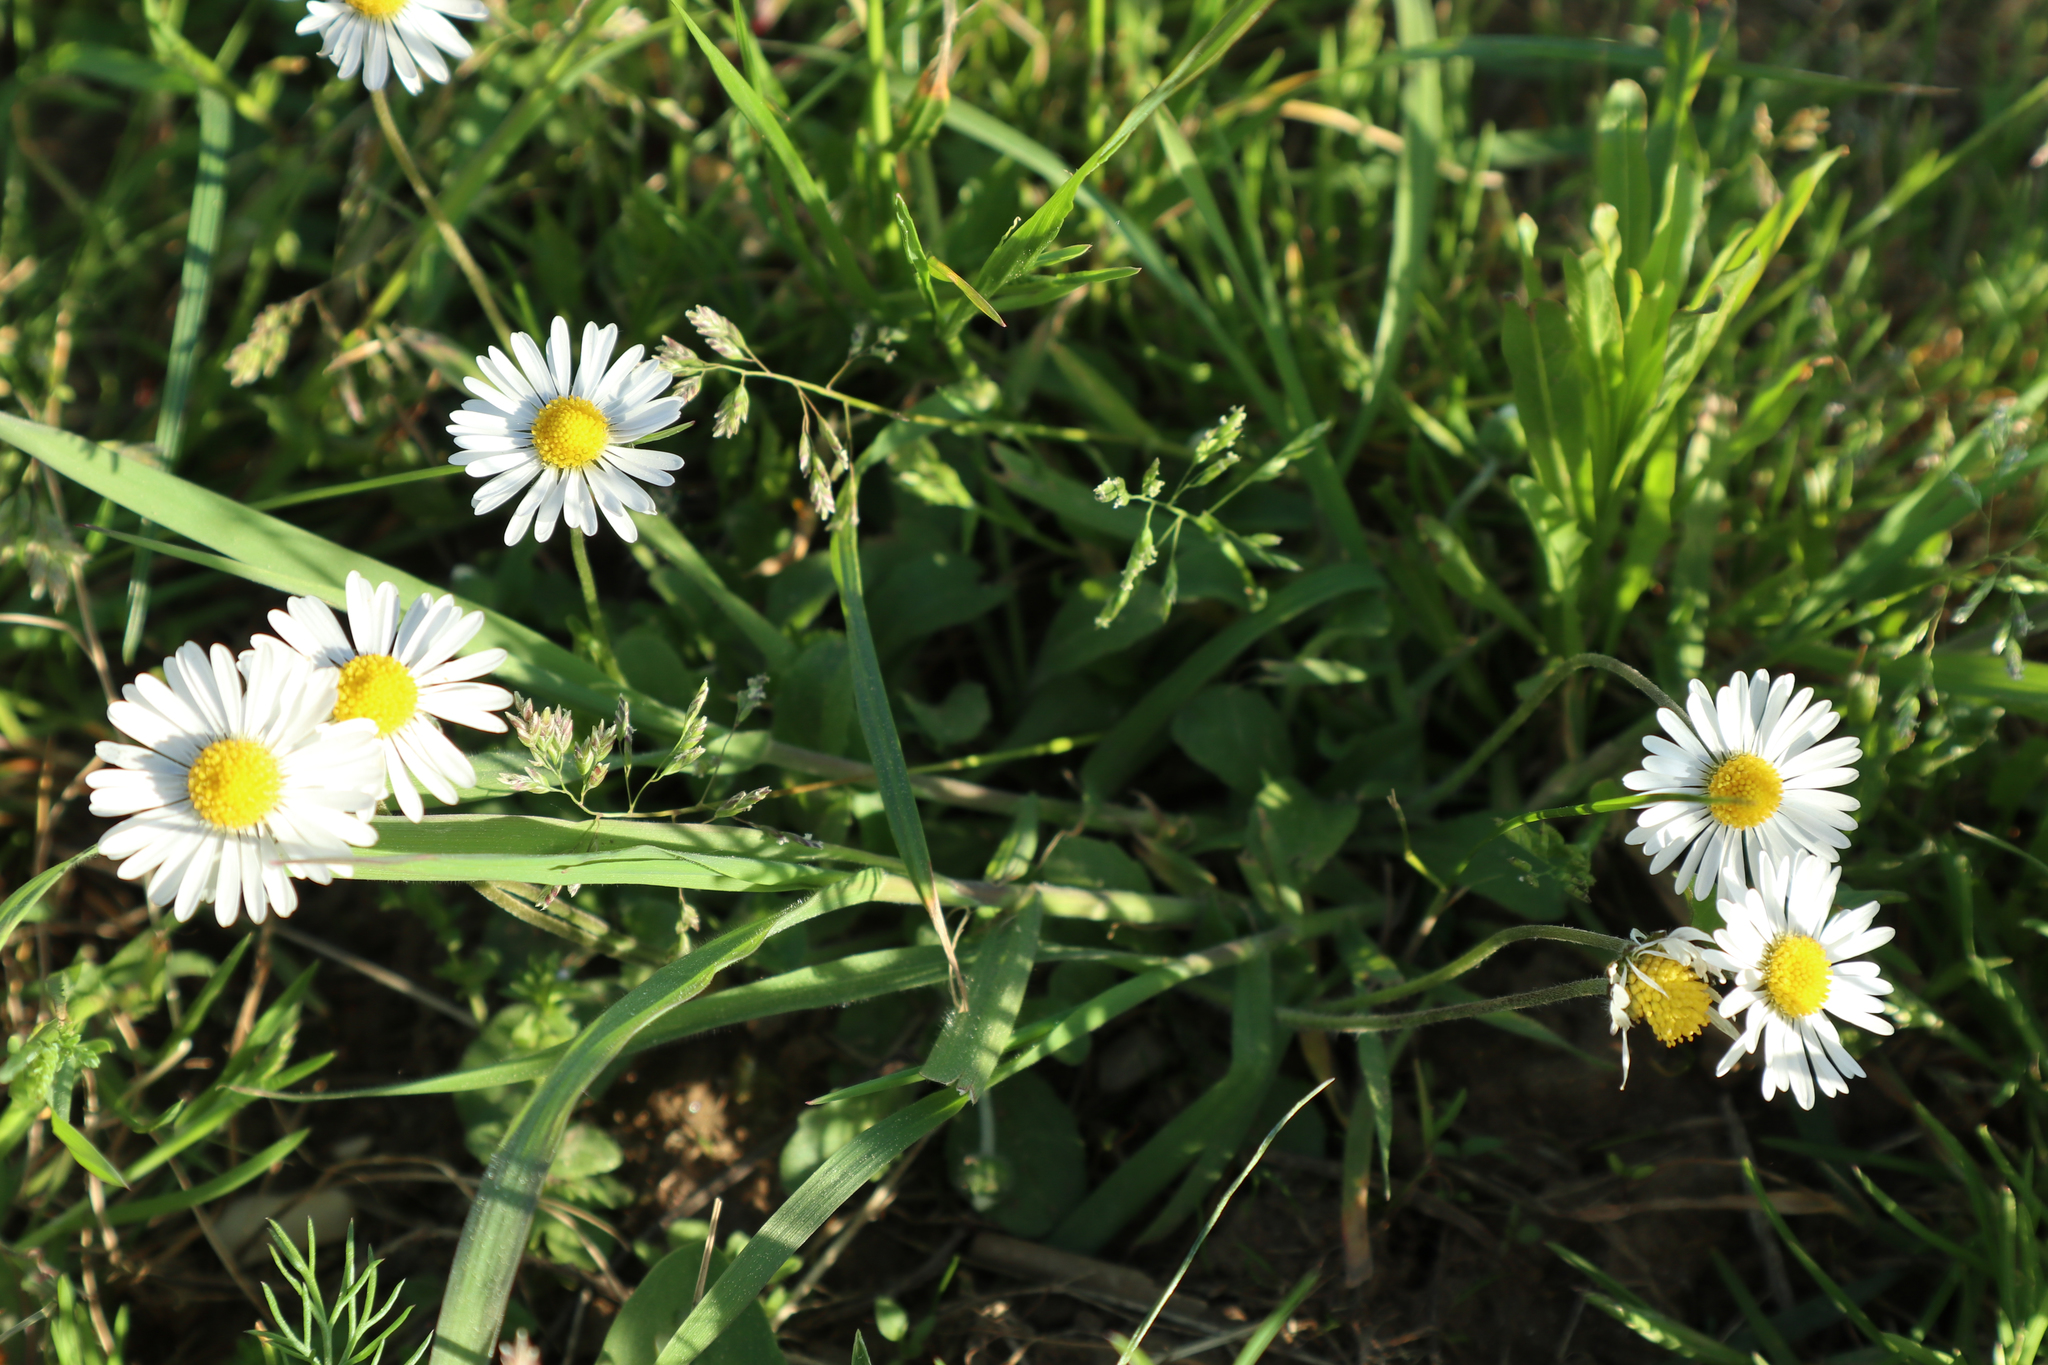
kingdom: Plantae
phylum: Tracheophyta
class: Magnoliopsida
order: Asterales
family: Asteraceae
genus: Bellis
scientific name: Bellis perennis
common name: Lawndaisy
